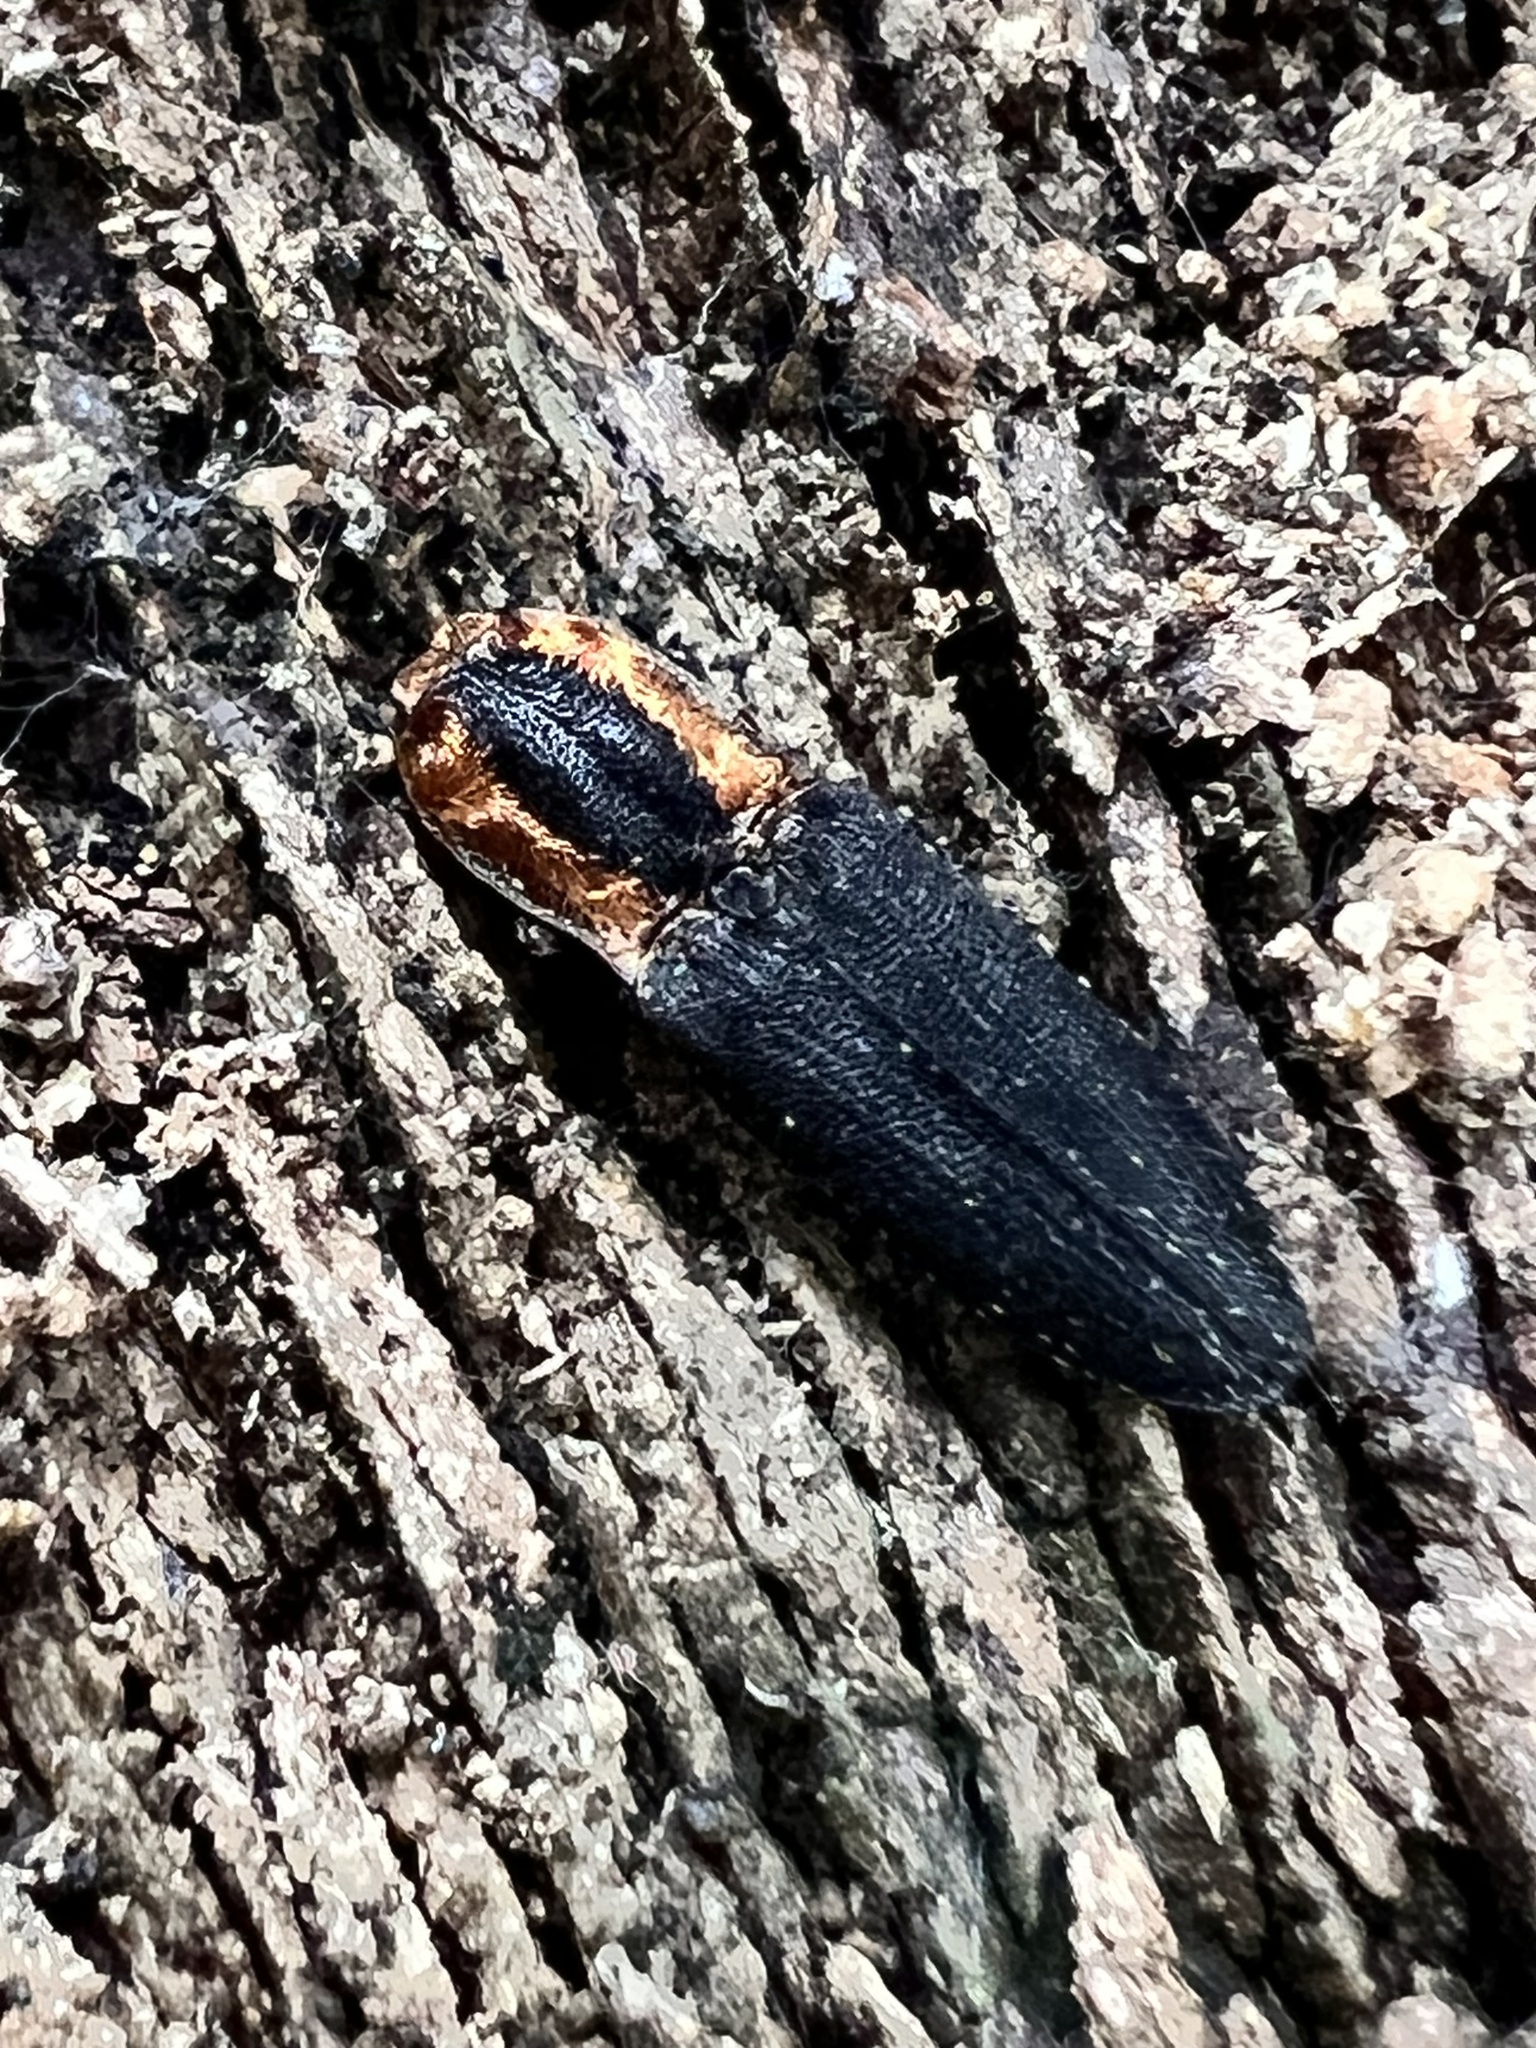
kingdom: Animalia
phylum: Arthropoda
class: Insecta
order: Coleoptera
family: Elateridae
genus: Lacon
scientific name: Lacon discoideus
